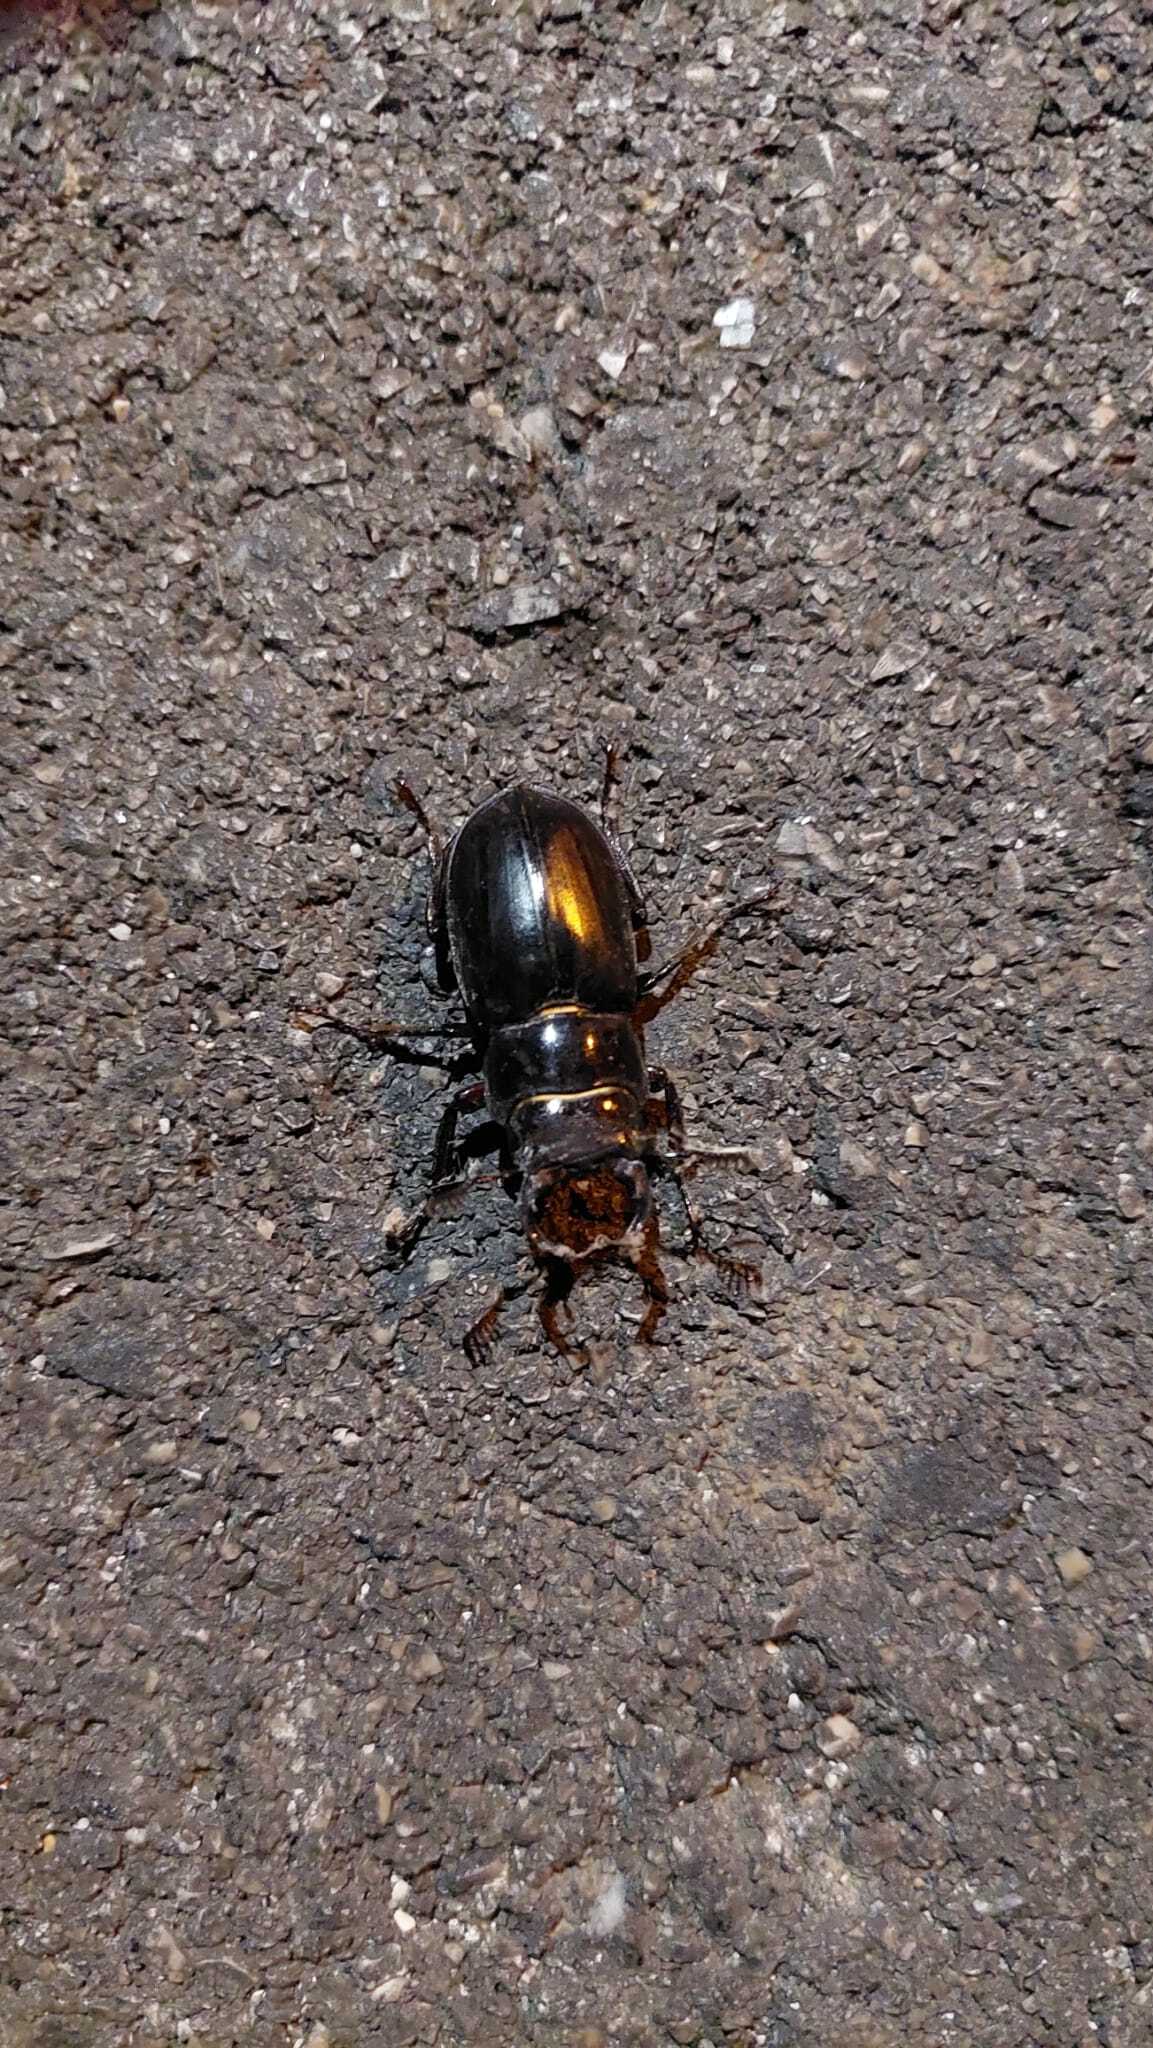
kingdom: Animalia
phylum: Arthropoda
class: Insecta
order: Coleoptera
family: Lucanidae
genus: Lucanus
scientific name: Lucanus barbarossa
